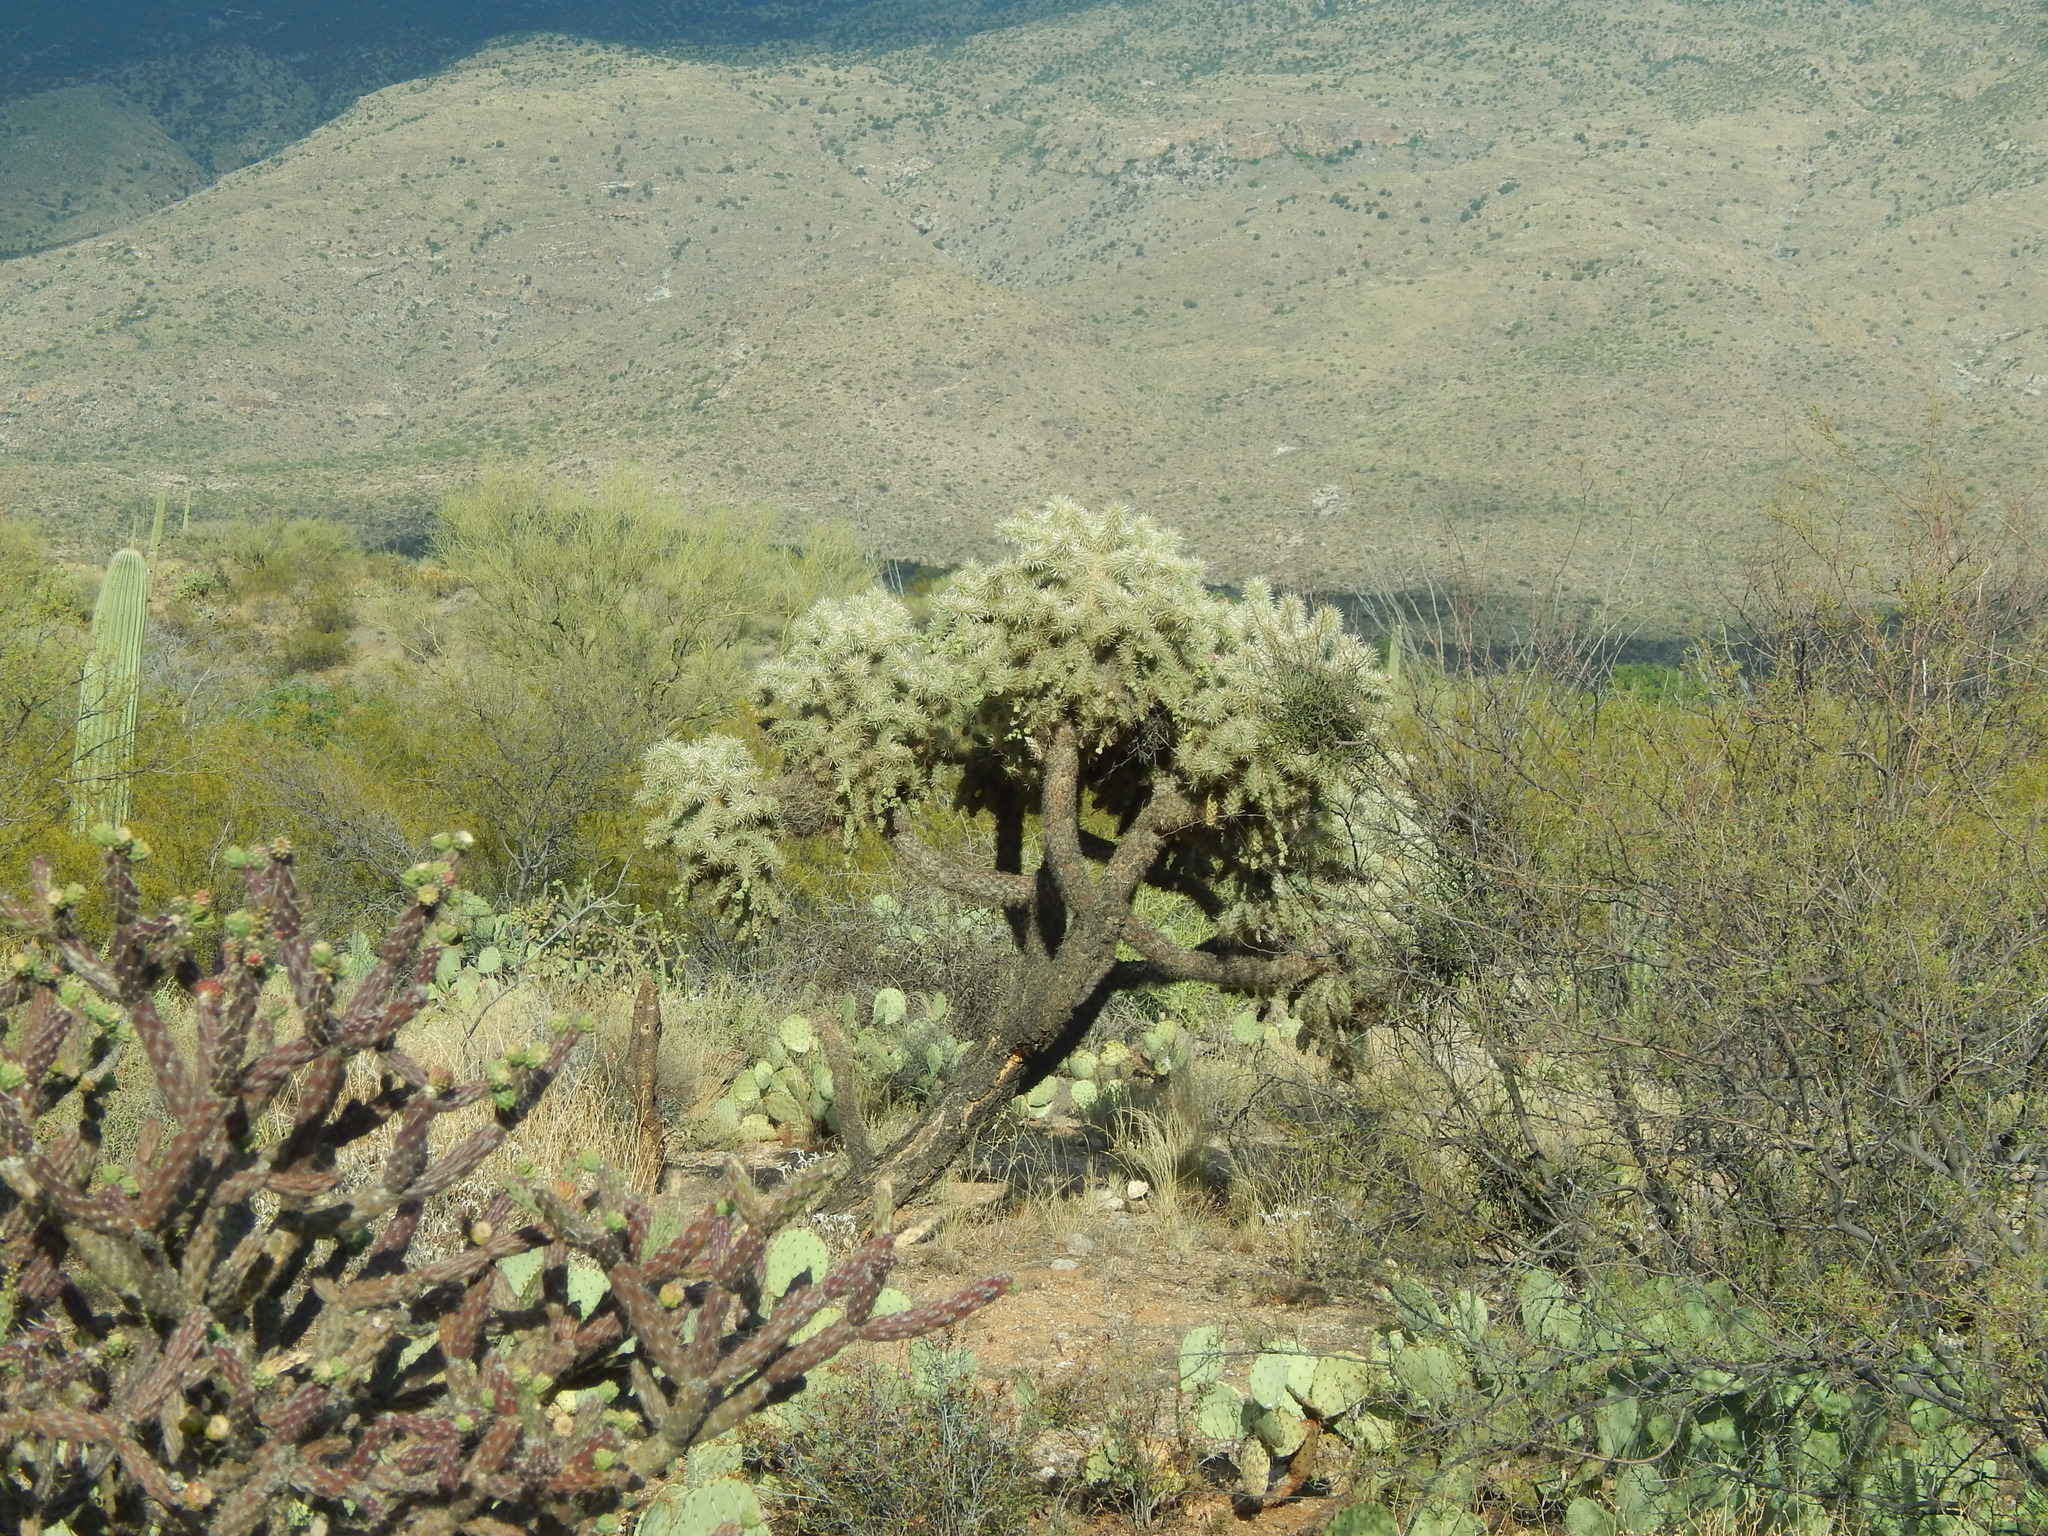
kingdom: Plantae
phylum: Tracheophyta
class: Magnoliopsida
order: Caryophyllales
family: Cactaceae
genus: Cylindropuntia
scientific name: Cylindropuntia fulgida
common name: Jumping cholla
